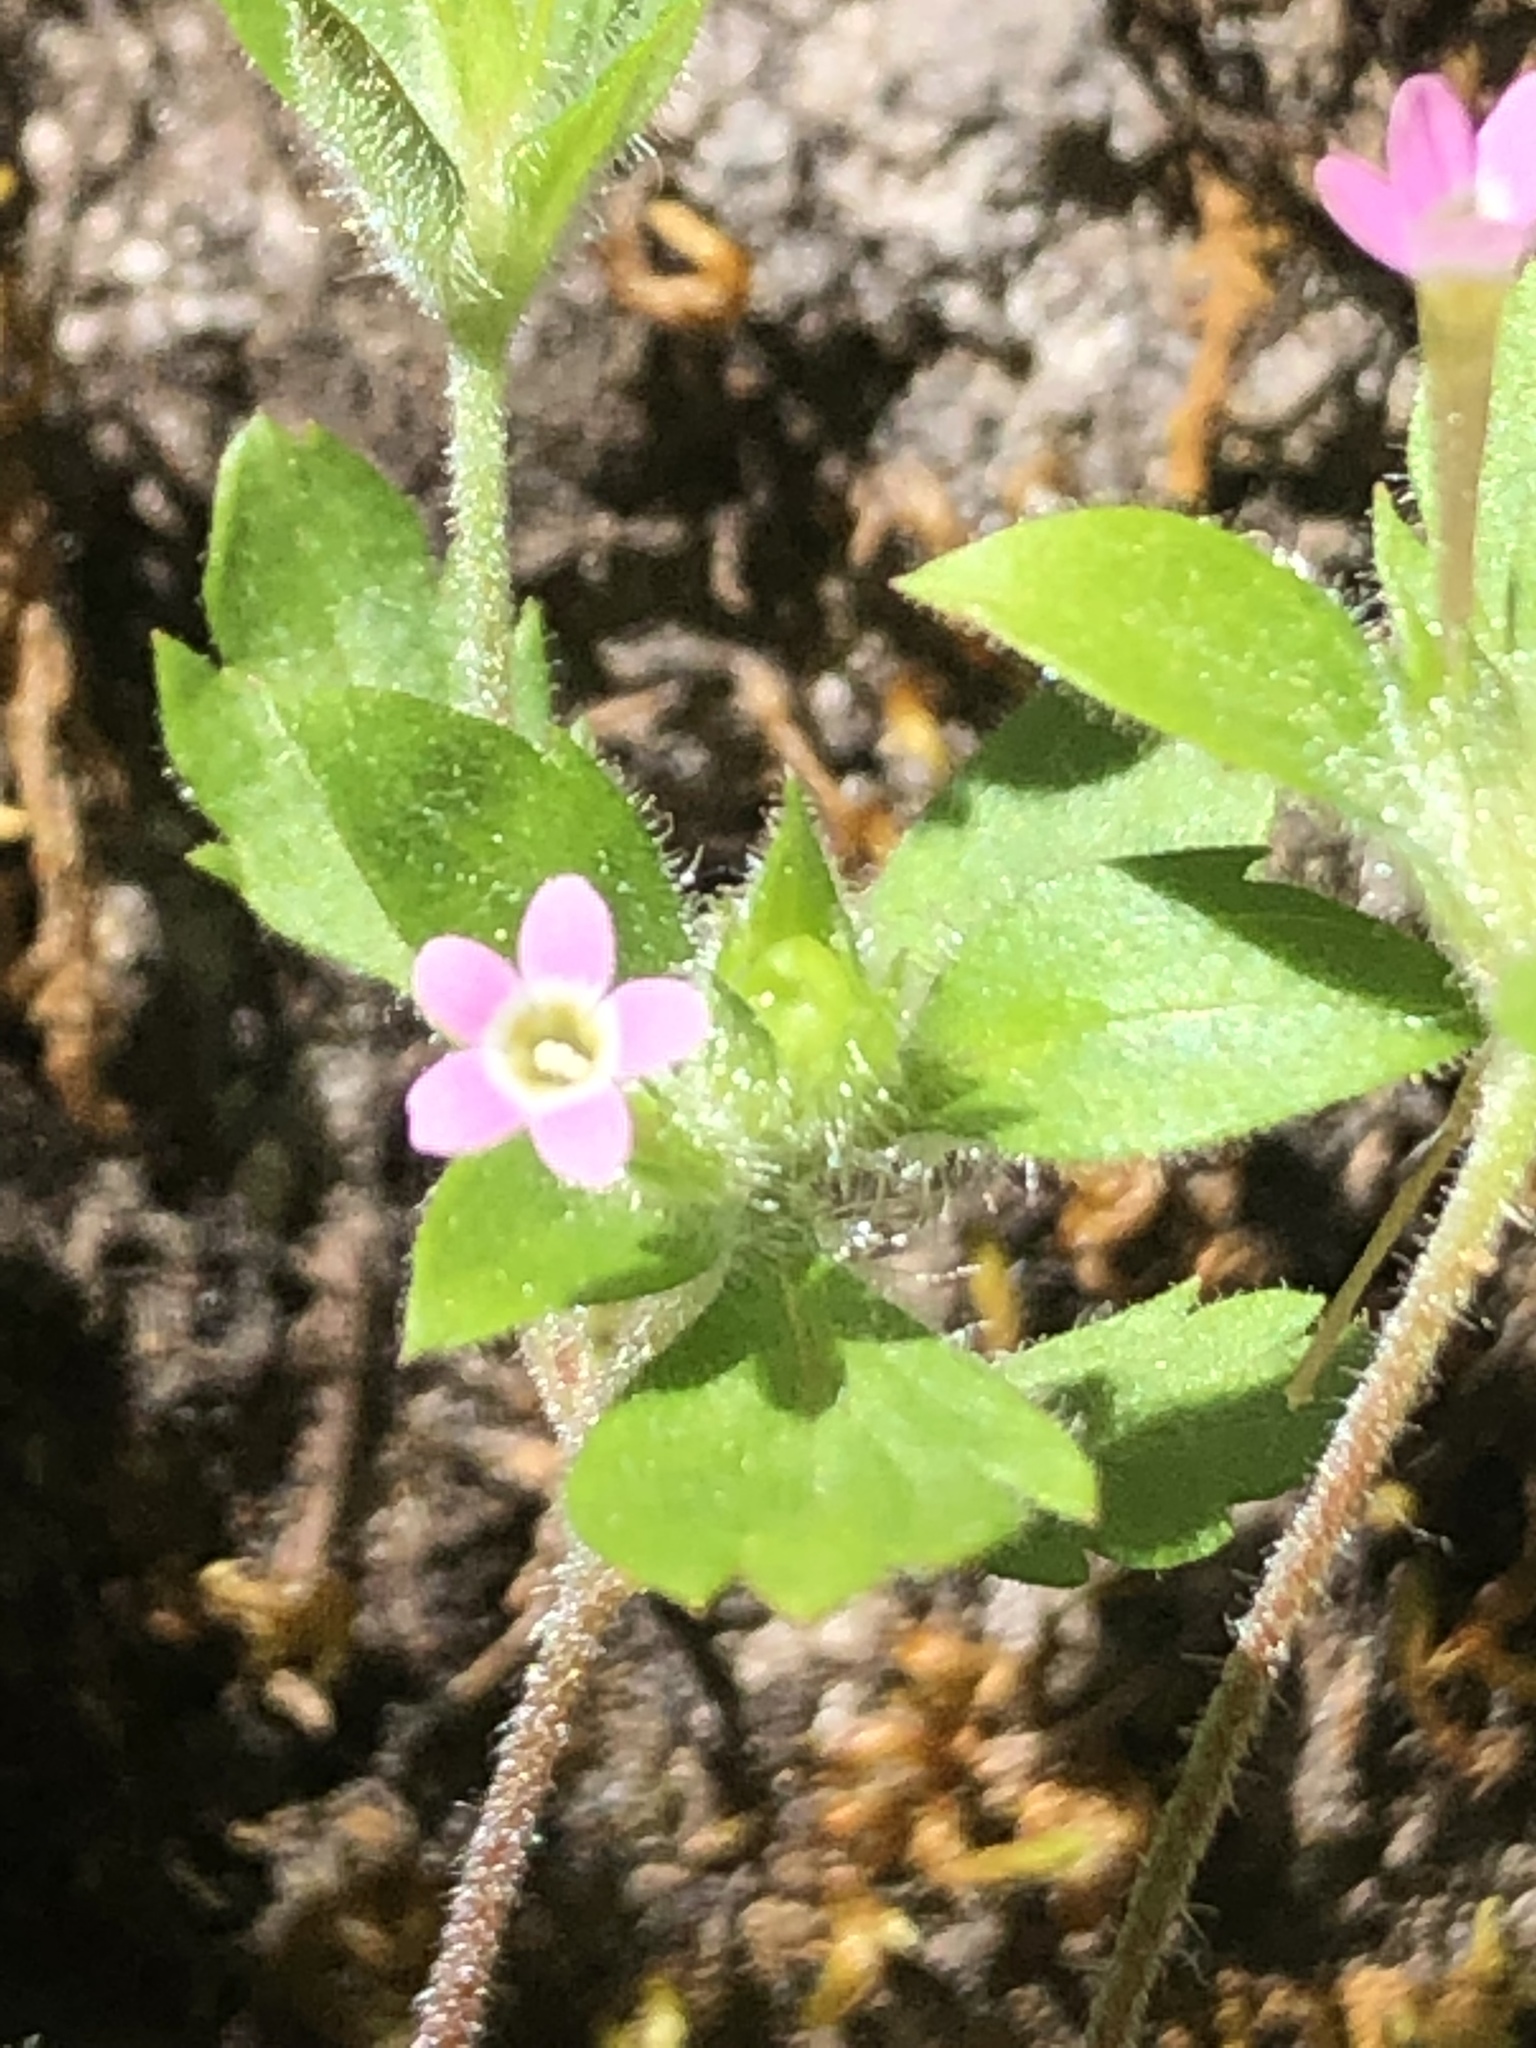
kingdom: Plantae
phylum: Tracheophyta
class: Magnoliopsida
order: Ericales
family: Polemoniaceae
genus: Collomia
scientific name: Collomia heterophylla
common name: Variable-leaved collomia
